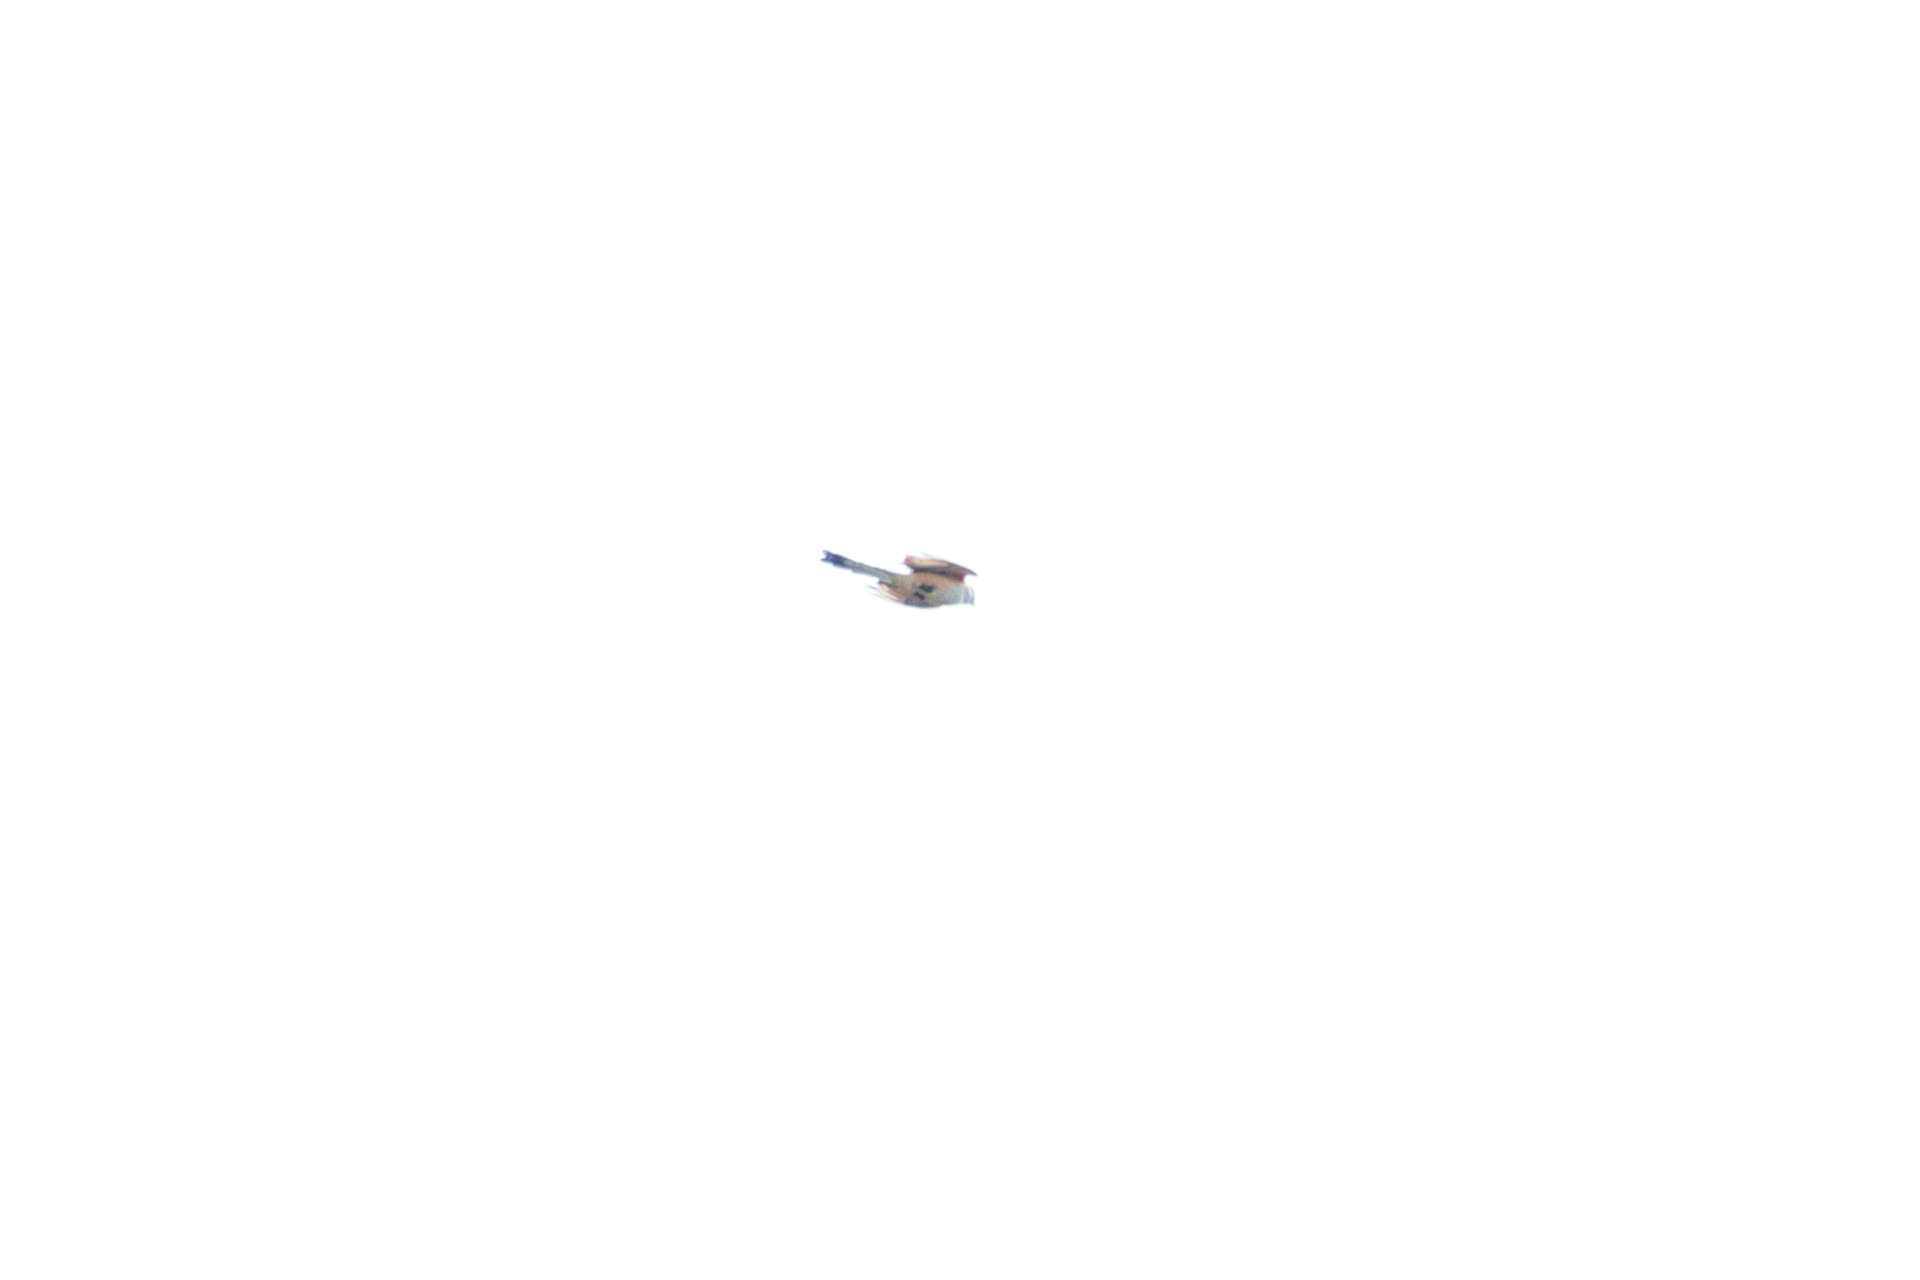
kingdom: Animalia
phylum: Chordata
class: Aves
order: Passeriformes
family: Tyrannidae
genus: Tyrannus
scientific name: Tyrannus forficatus
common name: Scissor-tailed flycatcher
